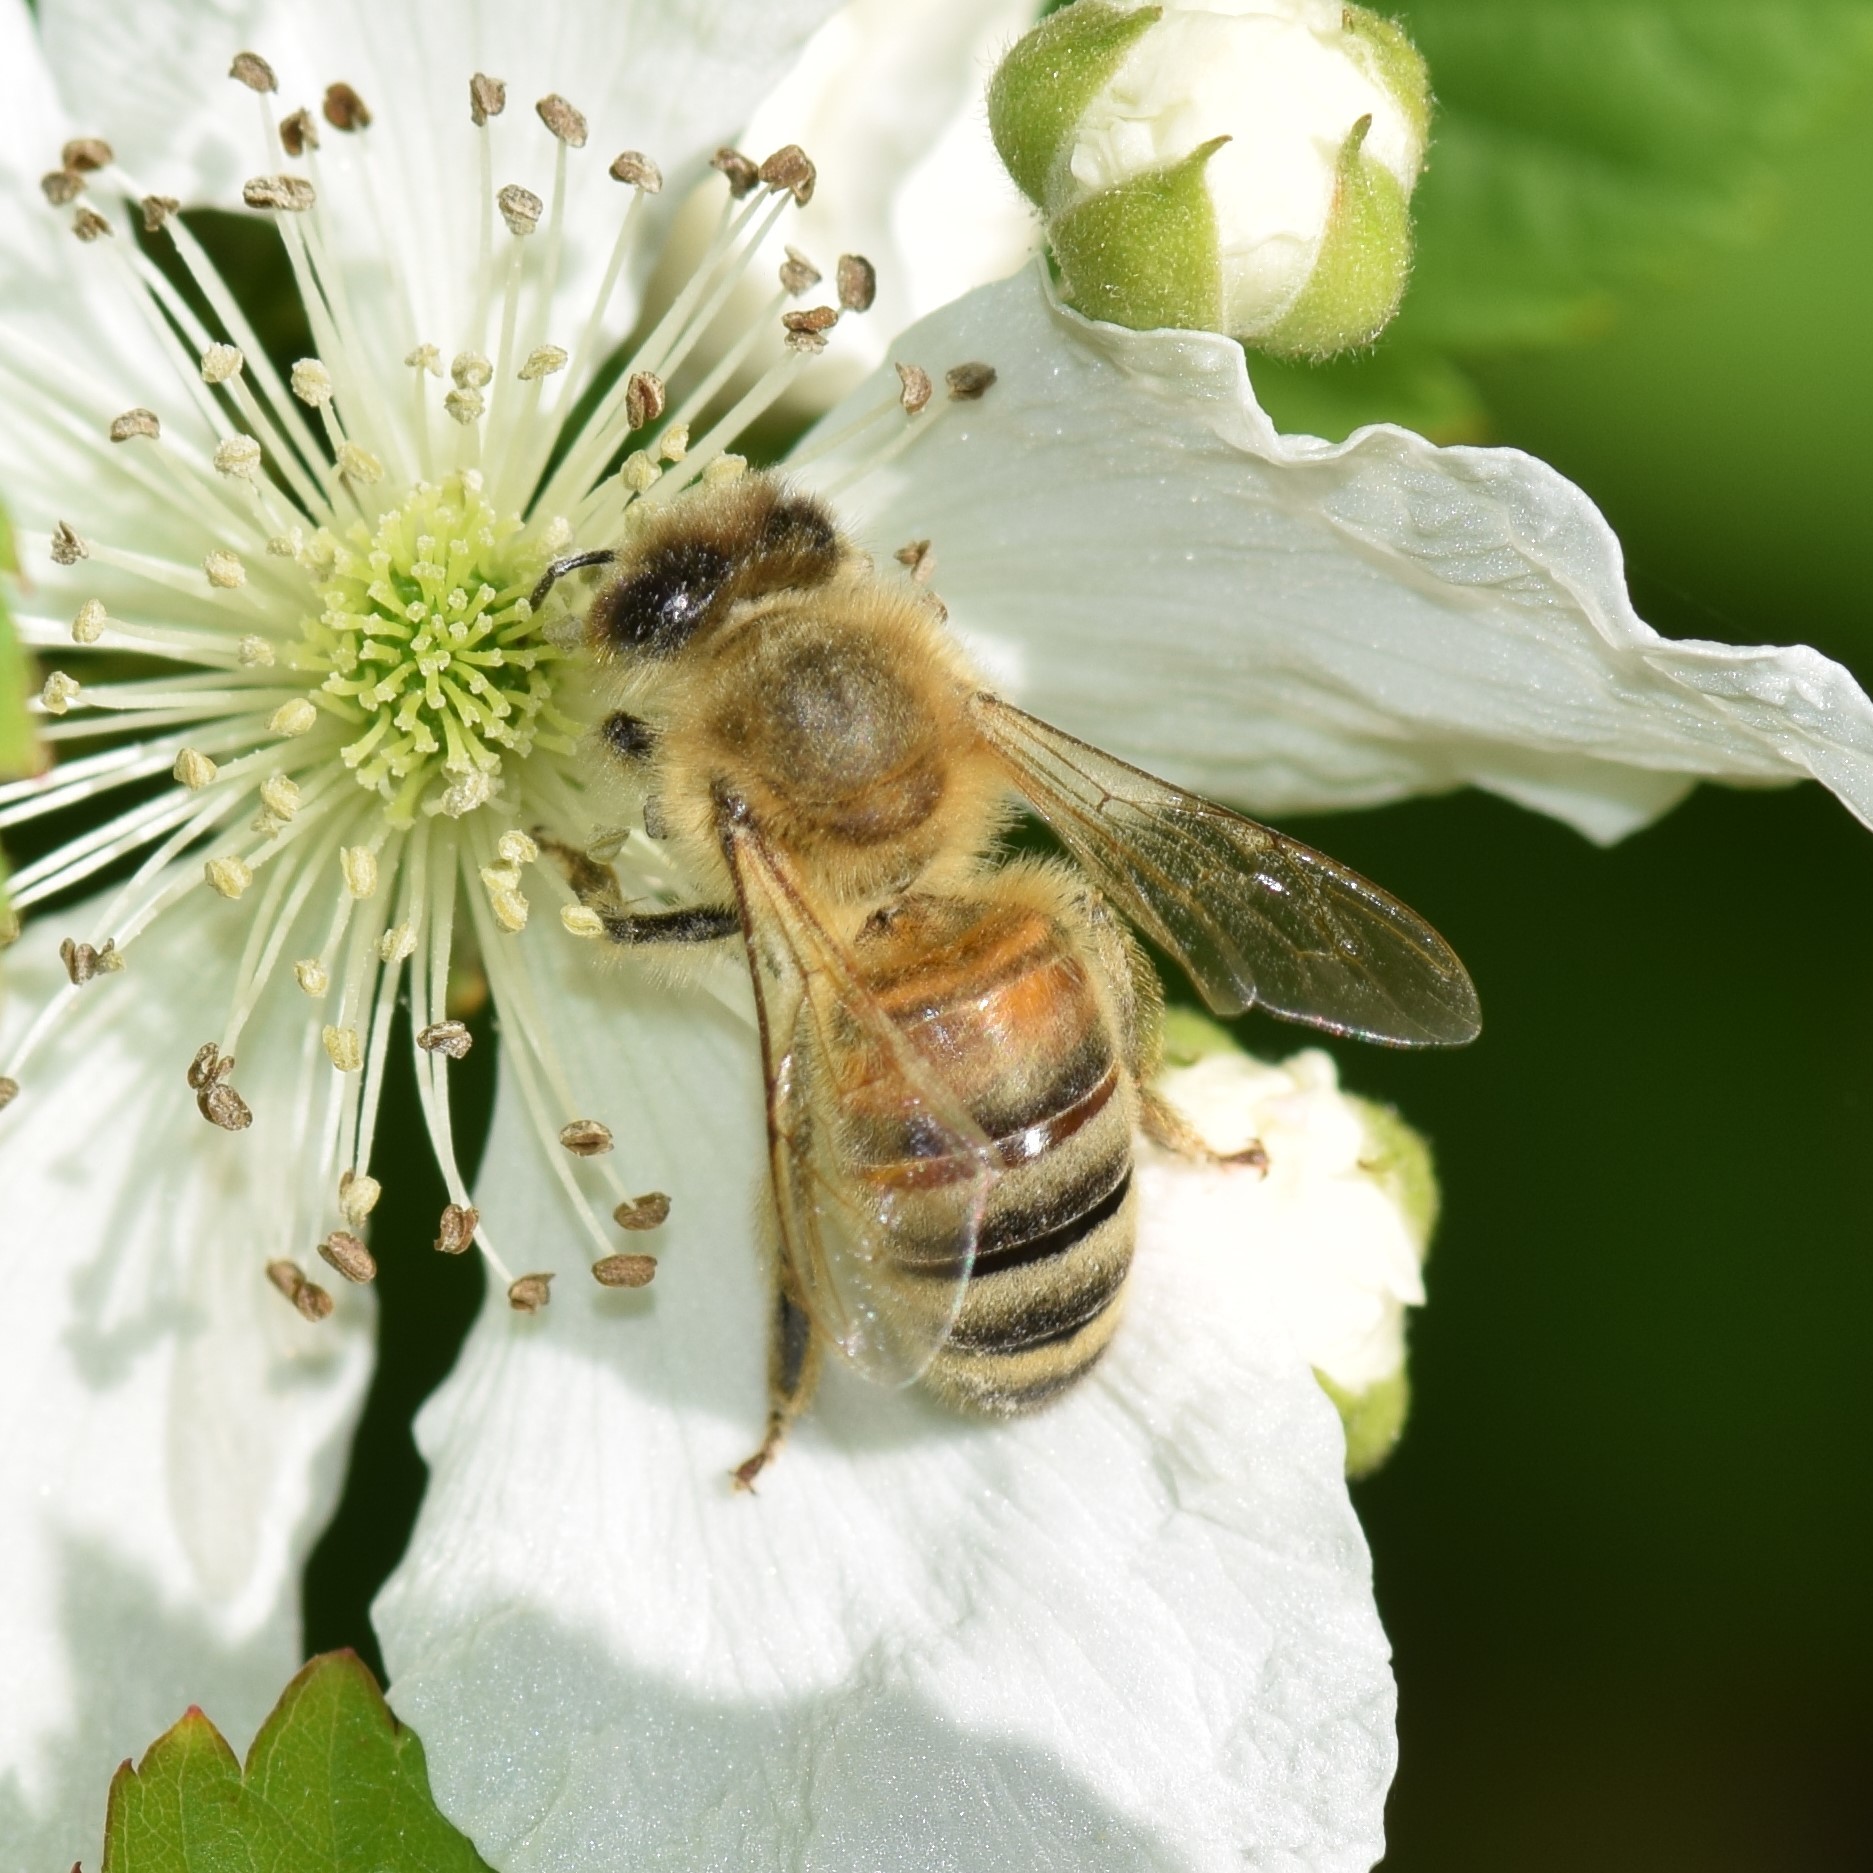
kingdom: Animalia
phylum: Arthropoda
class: Insecta
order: Hymenoptera
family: Apidae
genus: Apis
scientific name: Apis mellifera
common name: Honey bee
